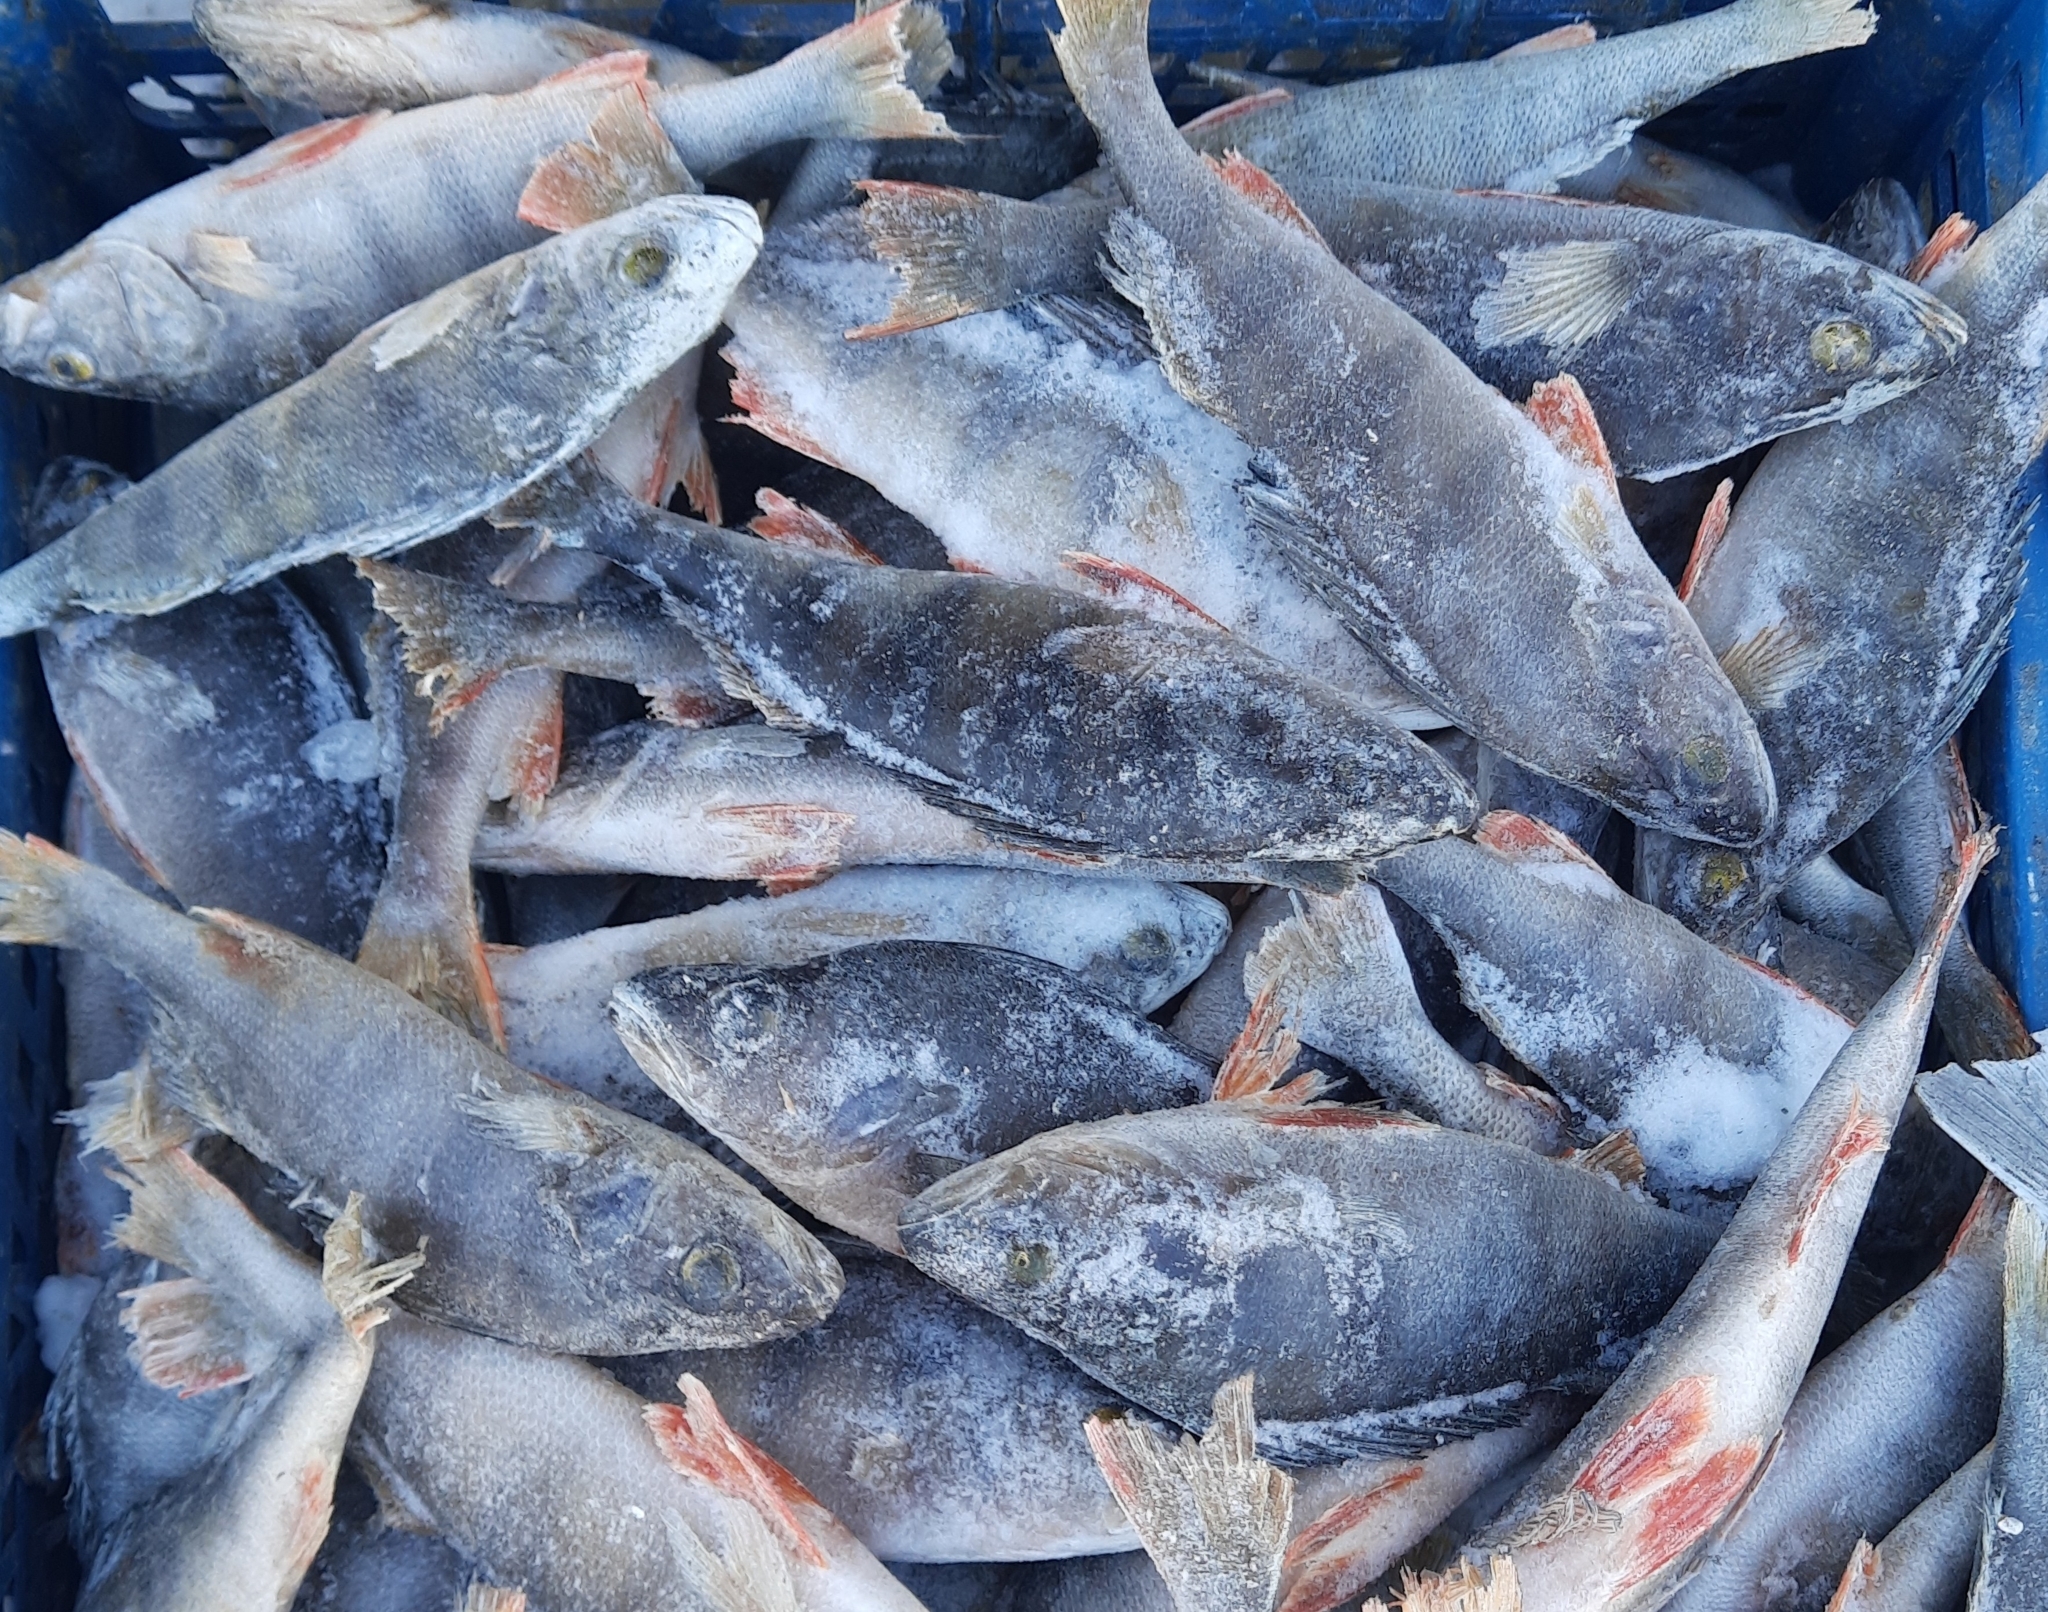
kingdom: Animalia
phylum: Chordata
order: Perciformes
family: Percidae
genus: Perca
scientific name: Perca fluviatilis
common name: Perch
